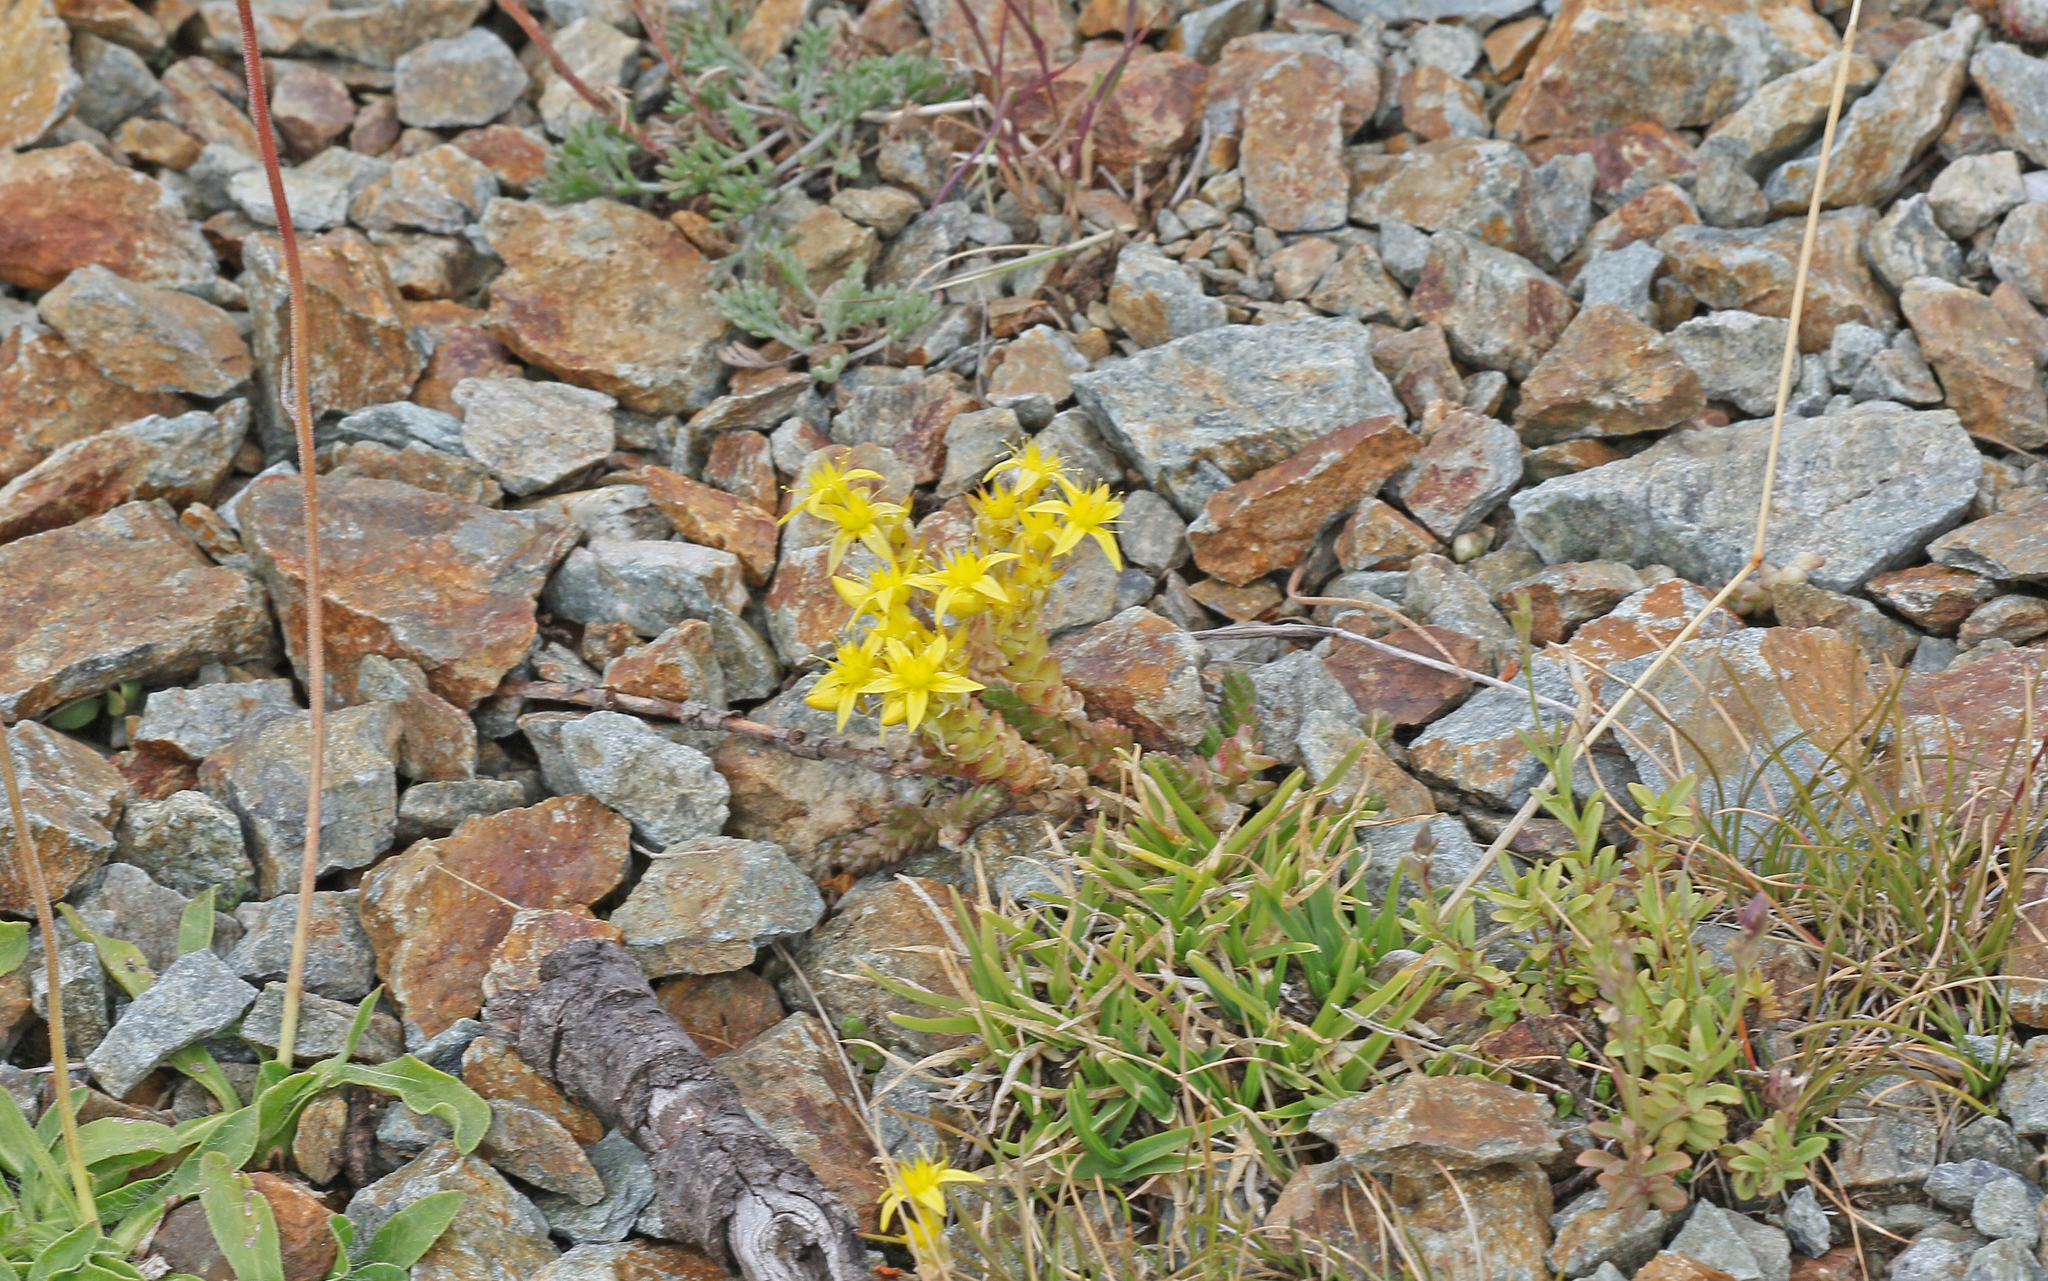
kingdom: Plantae
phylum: Tracheophyta
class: Magnoliopsida
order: Saxifragales
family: Crassulaceae
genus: Sedum
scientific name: Sedum acre
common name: Biting stonecrop
